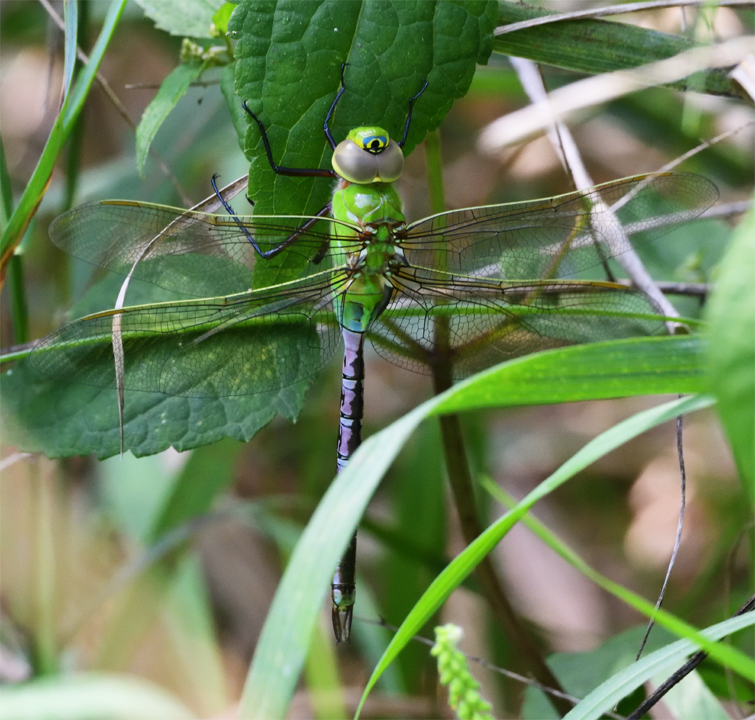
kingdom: Animalia
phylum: Arthropoda
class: Insecta
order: Odonata
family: Aeshnidae
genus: Anax
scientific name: Anax junius
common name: Common green darner
